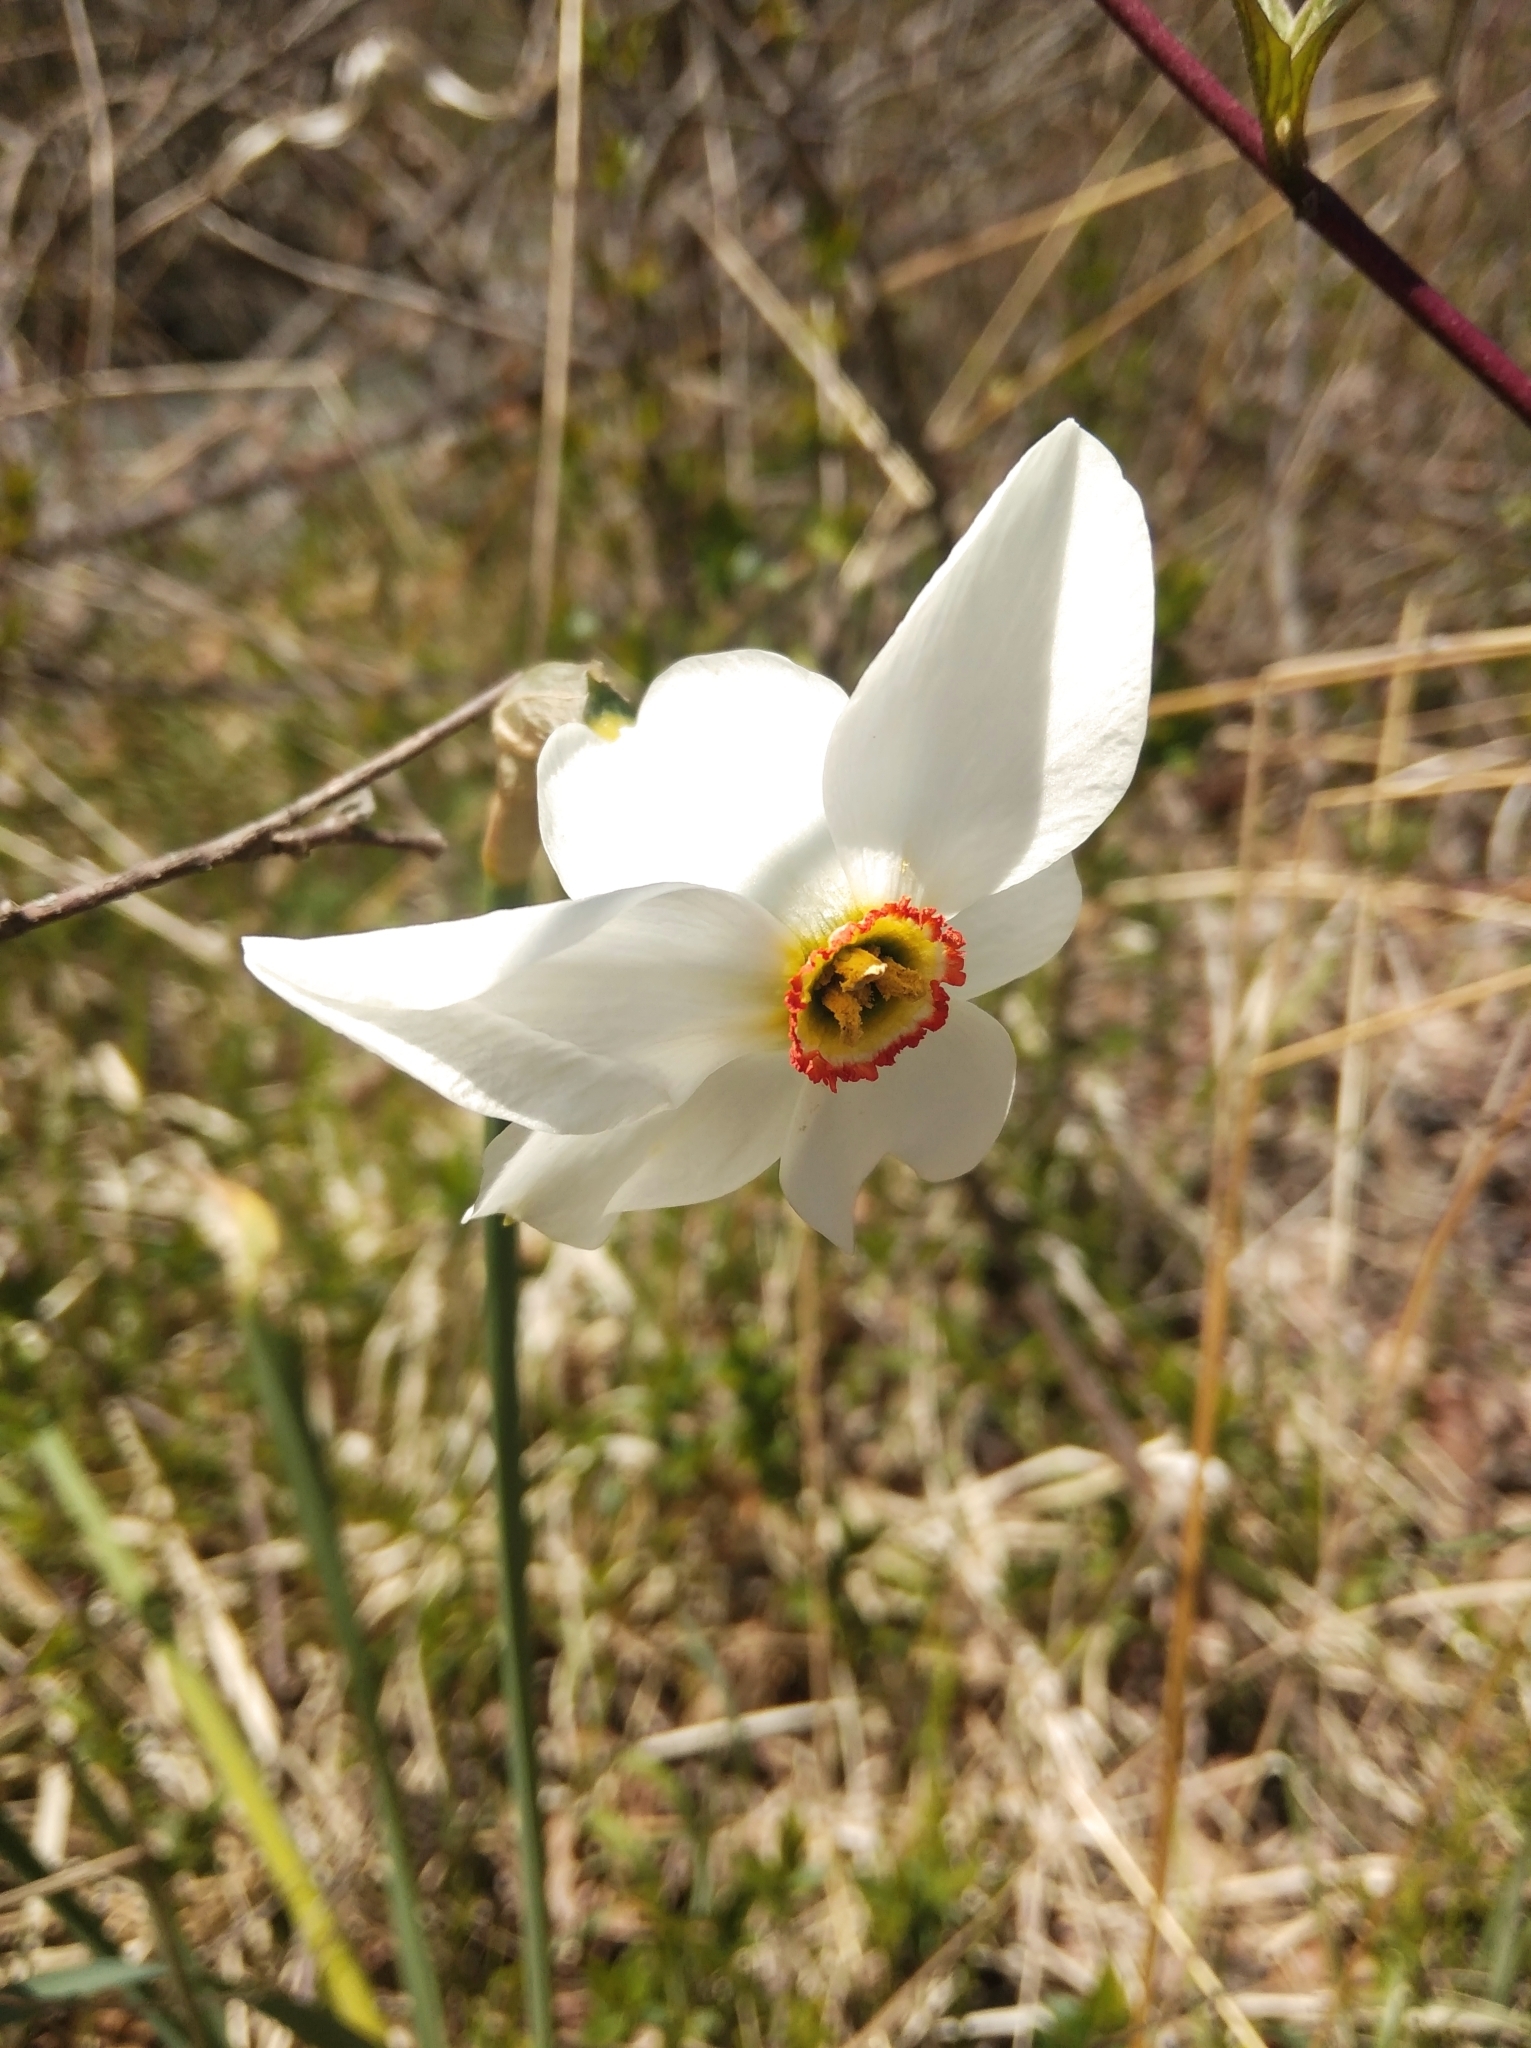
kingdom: Plantae
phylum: Tracheophyta
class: Liliopsida
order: Asparagales
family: Amaryllidaceae
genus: Narcissus
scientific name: Narcissus poeticus
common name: Pheasant's-eye daffodil
